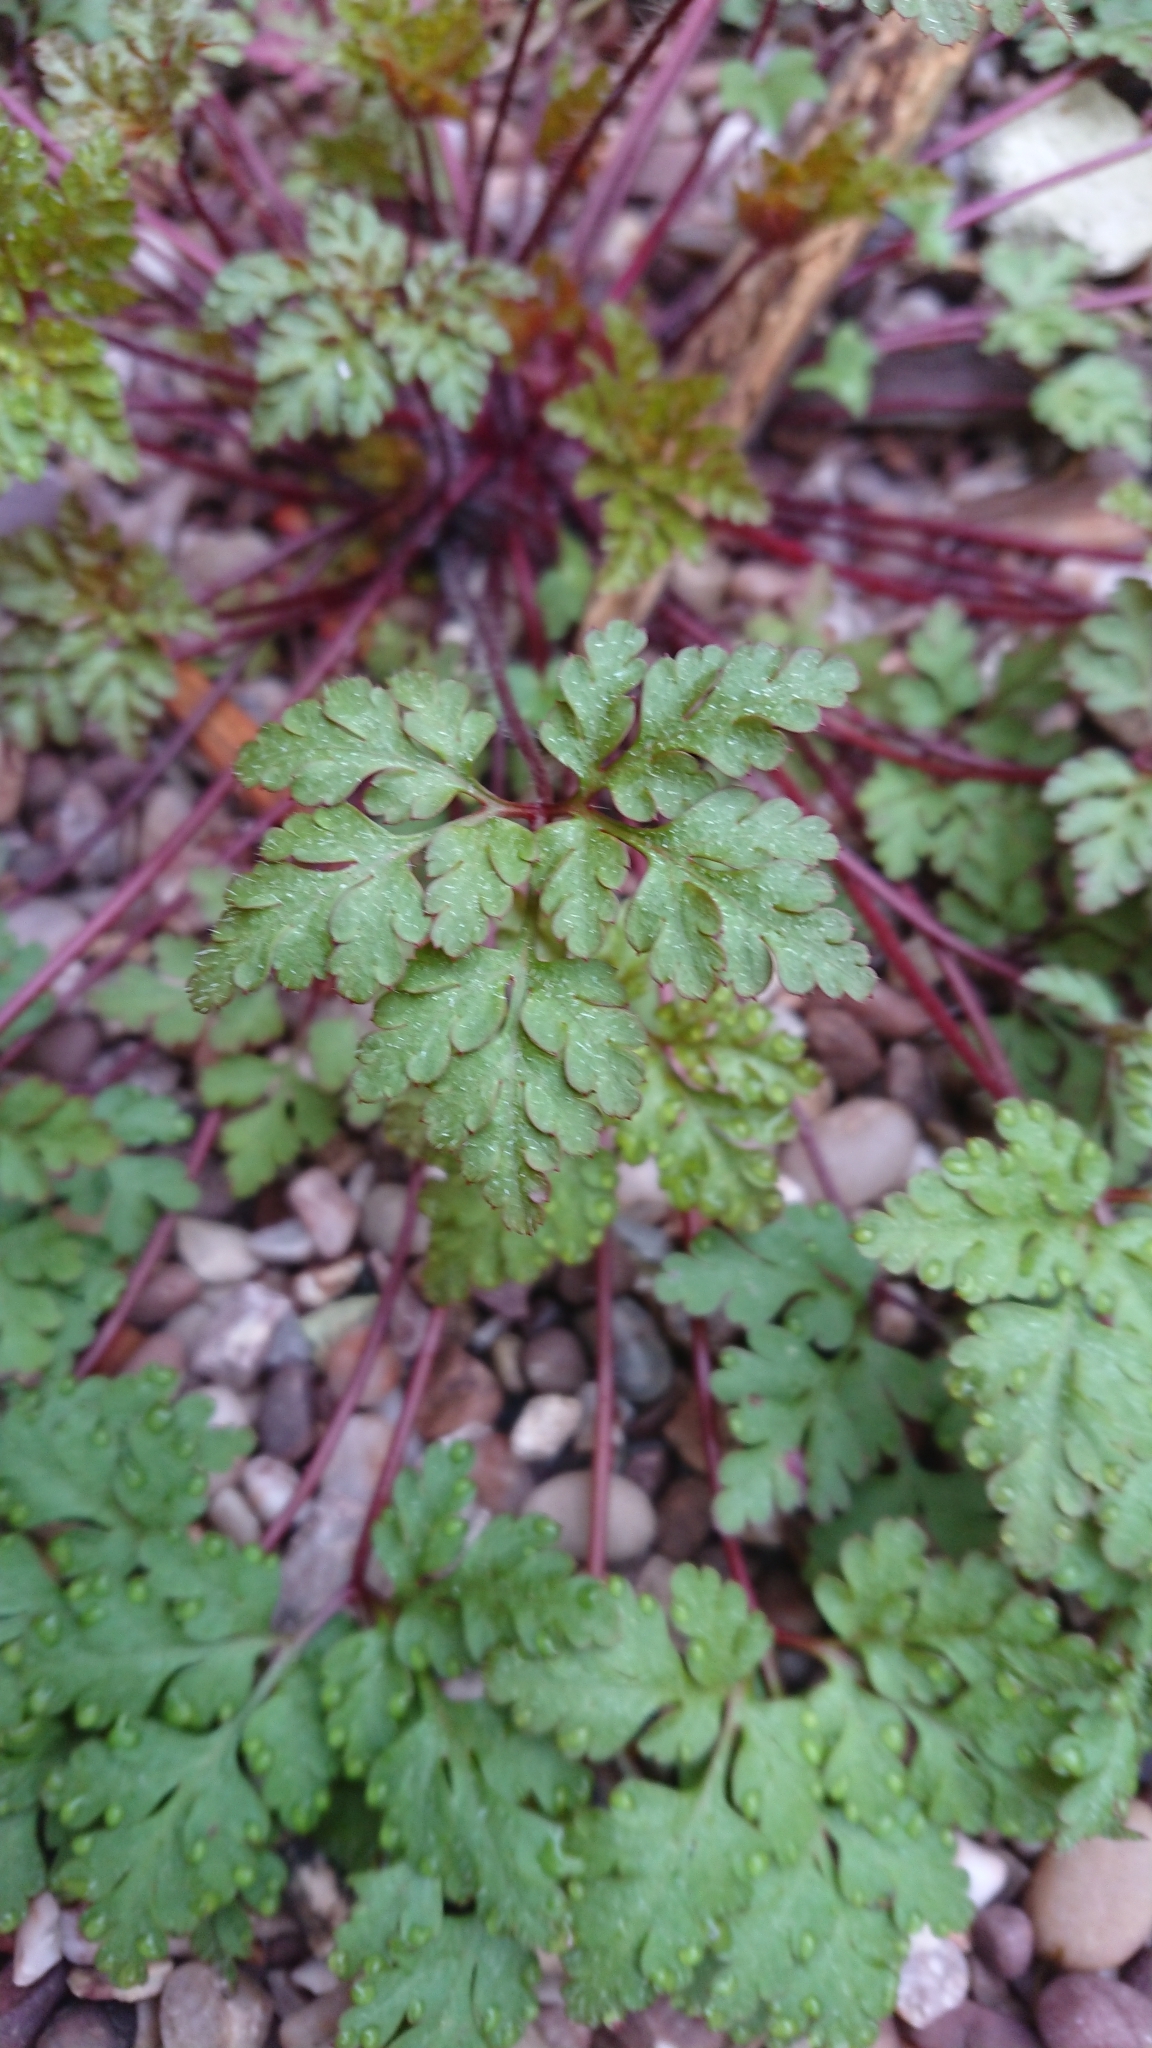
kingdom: Plantae
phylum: Tracheophyta
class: Magnoliopsida
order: Geraniales
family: Geraniaceae
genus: Geranium
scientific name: Geranium robertianum
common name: Herb-robert
